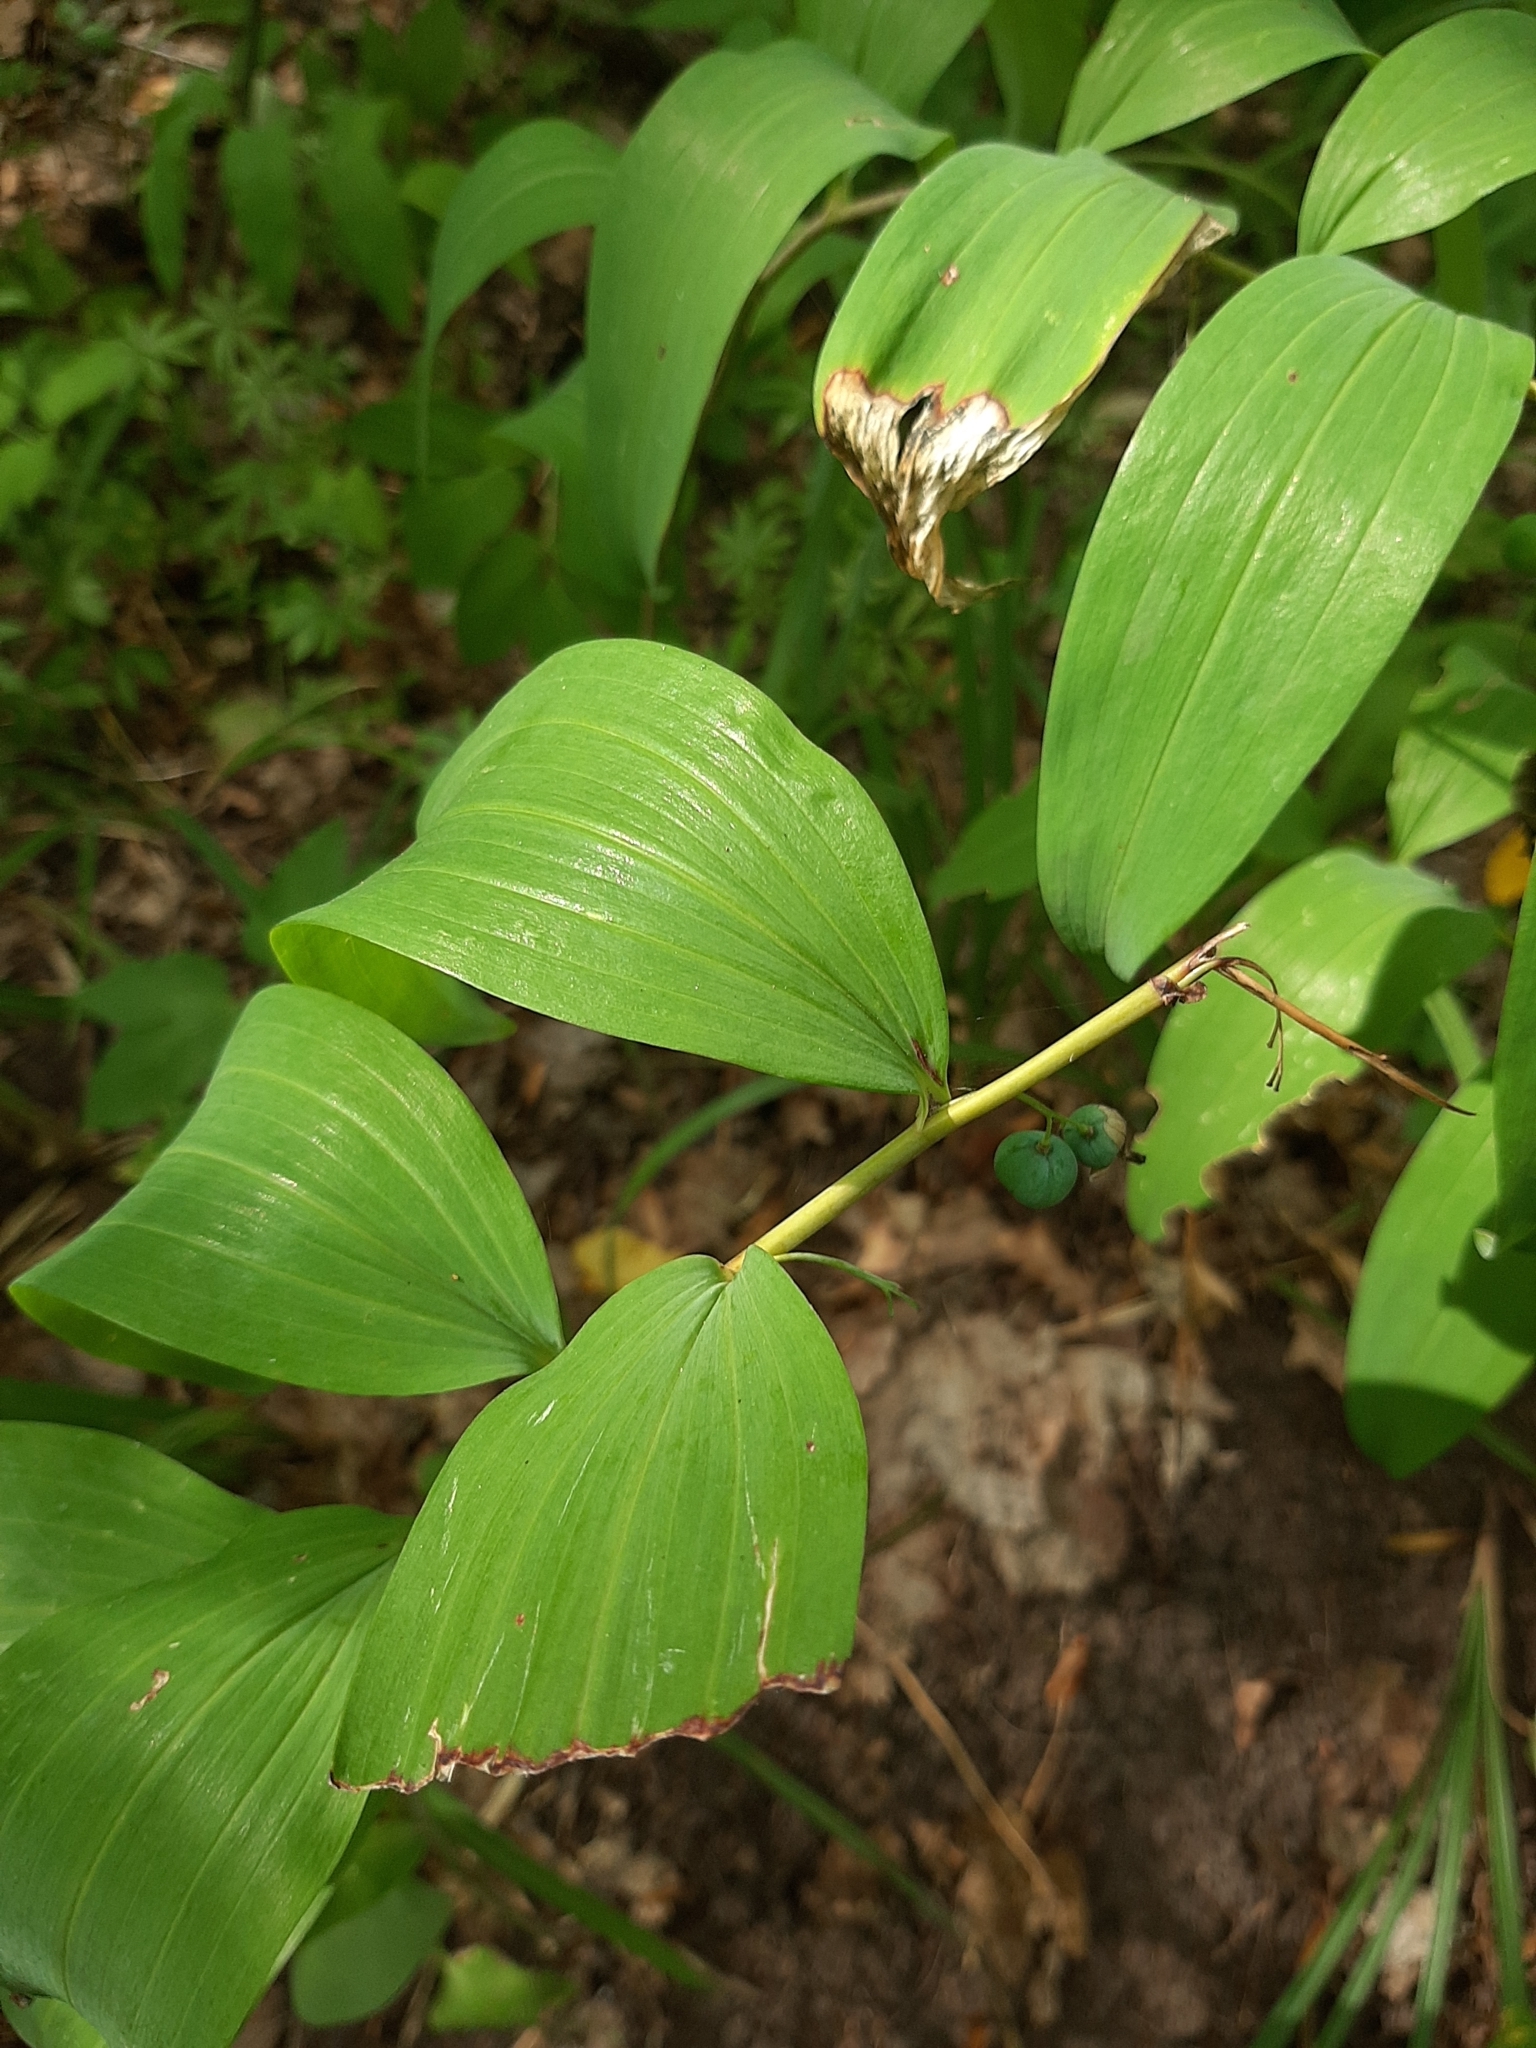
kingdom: Plantae
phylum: Tracheophyta
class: Liliopsida
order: Asparagales
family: Asparagaceae
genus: Polygonatum
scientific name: Polygonatum multiflorum
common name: Solomon's-seal
